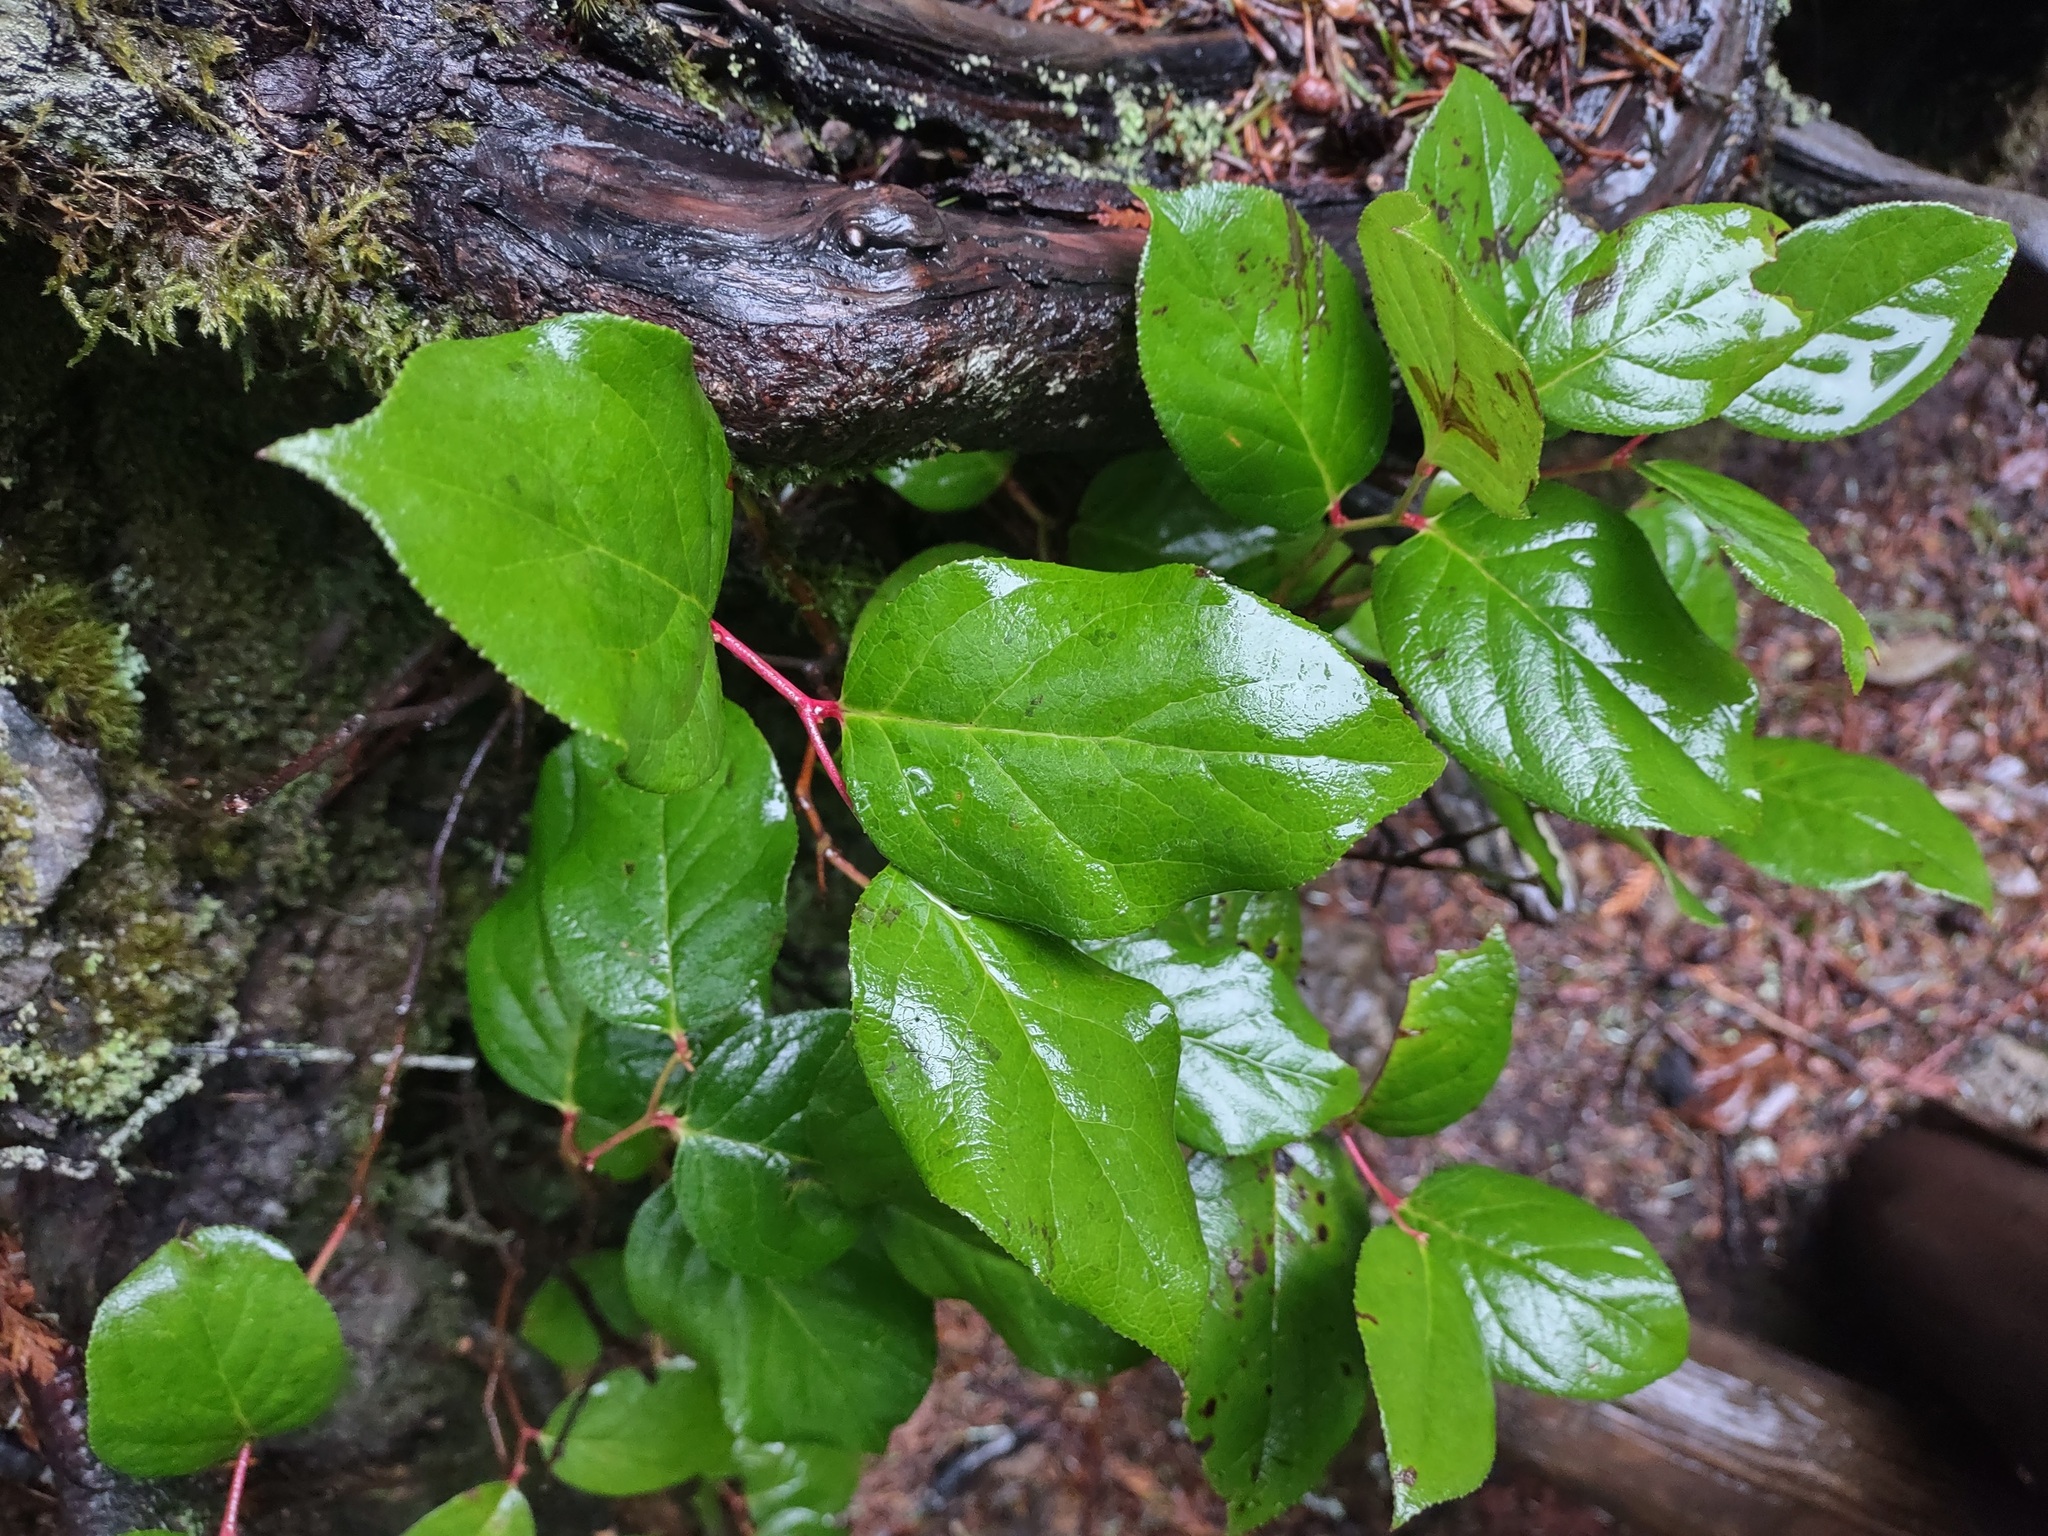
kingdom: Plantae
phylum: Tracheophyta
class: Magnoliopsida
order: Ericales
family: Ericaceae
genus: Gaultheria
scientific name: Gaultheria shallon
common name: Shallon
